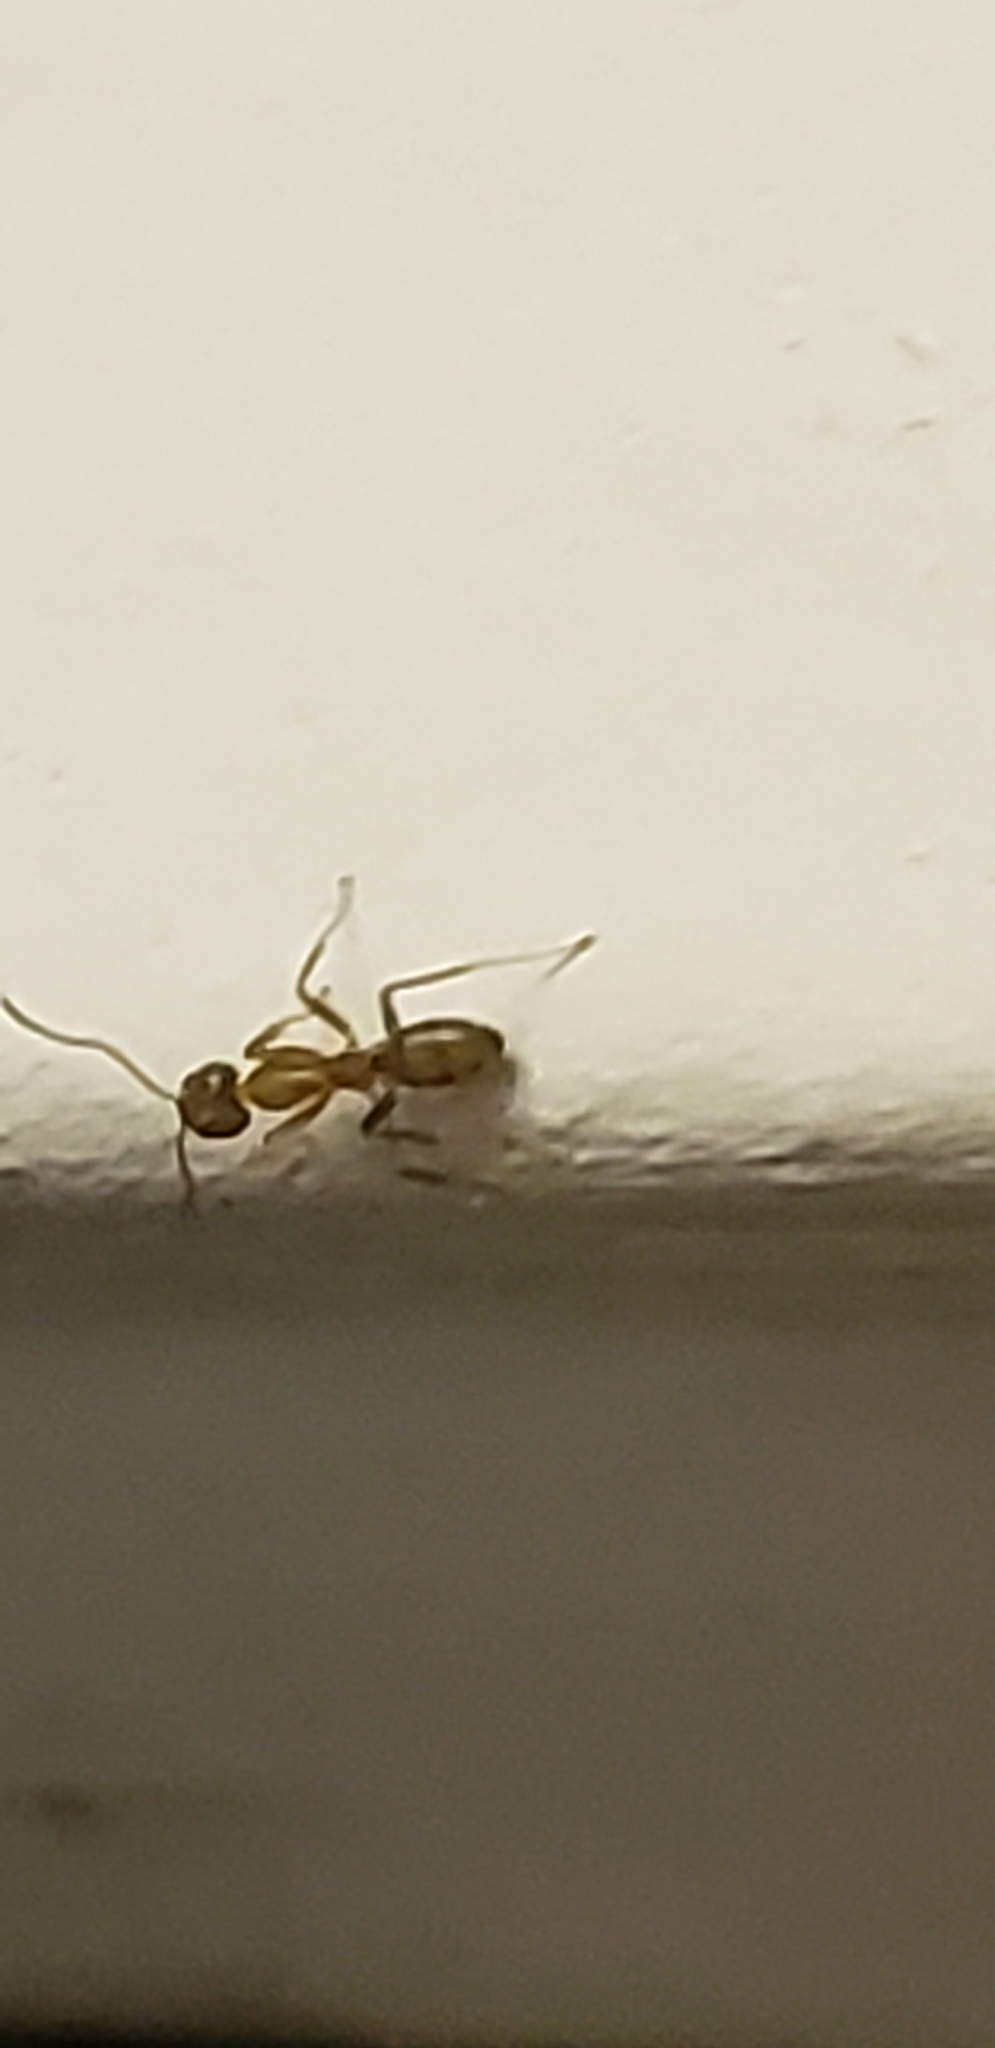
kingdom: Animalia
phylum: Arthropoda
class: Insecta
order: Hymenoptera
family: Formicidae
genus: Linepithema
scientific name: Linepithema humile
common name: Argentine ant
